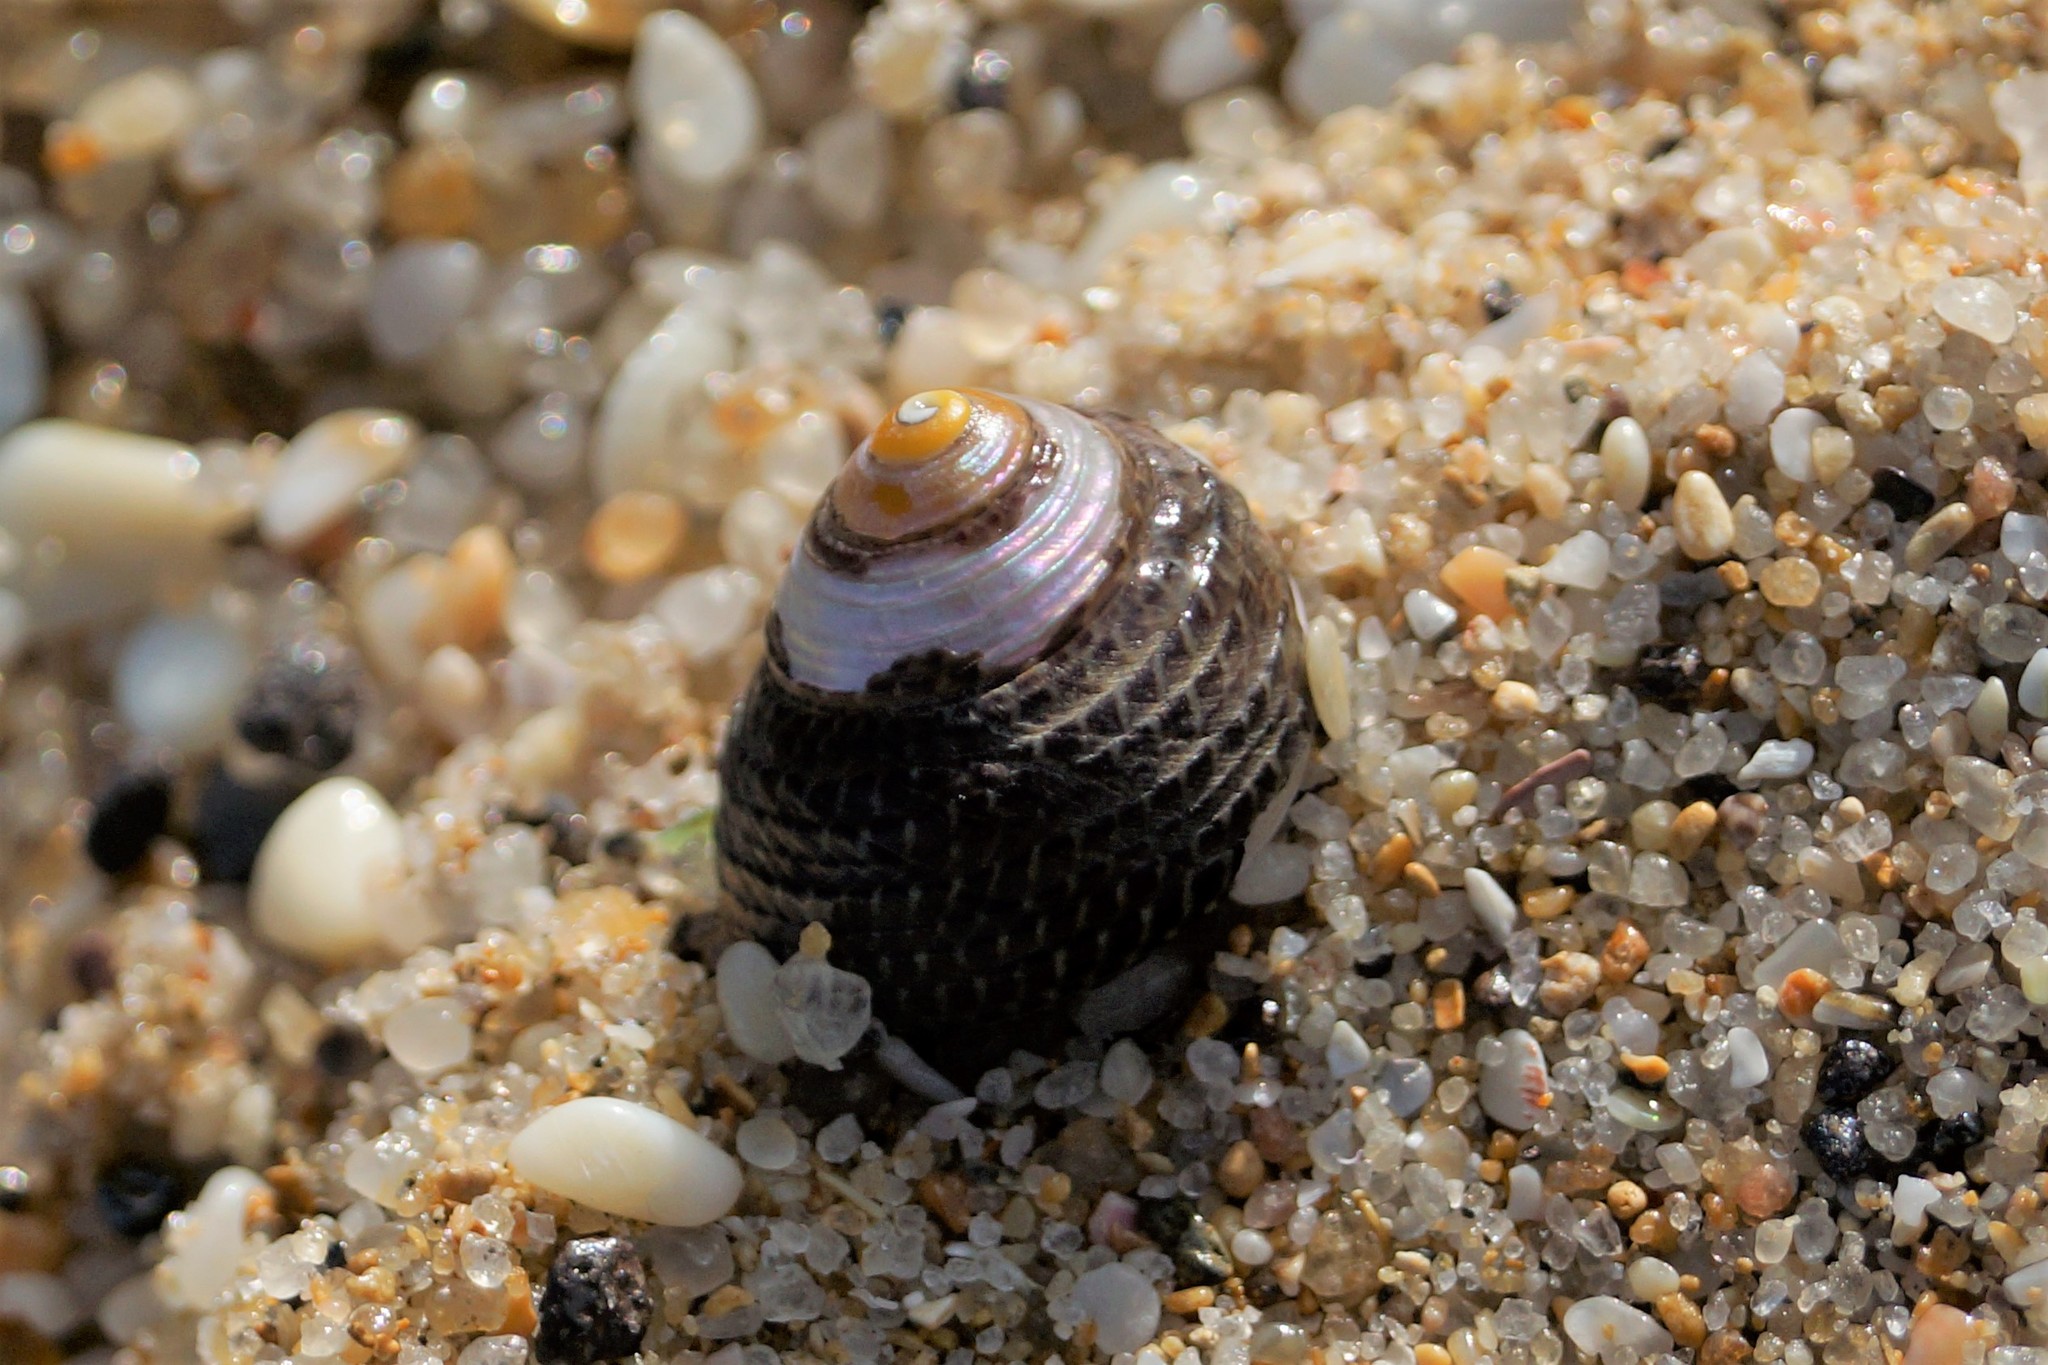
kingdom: Animalia
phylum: Mollusca
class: Gastropoda
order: Trochida
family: Trochidae
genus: Chlorodiloma
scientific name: Chlorodiloma adelaidae
